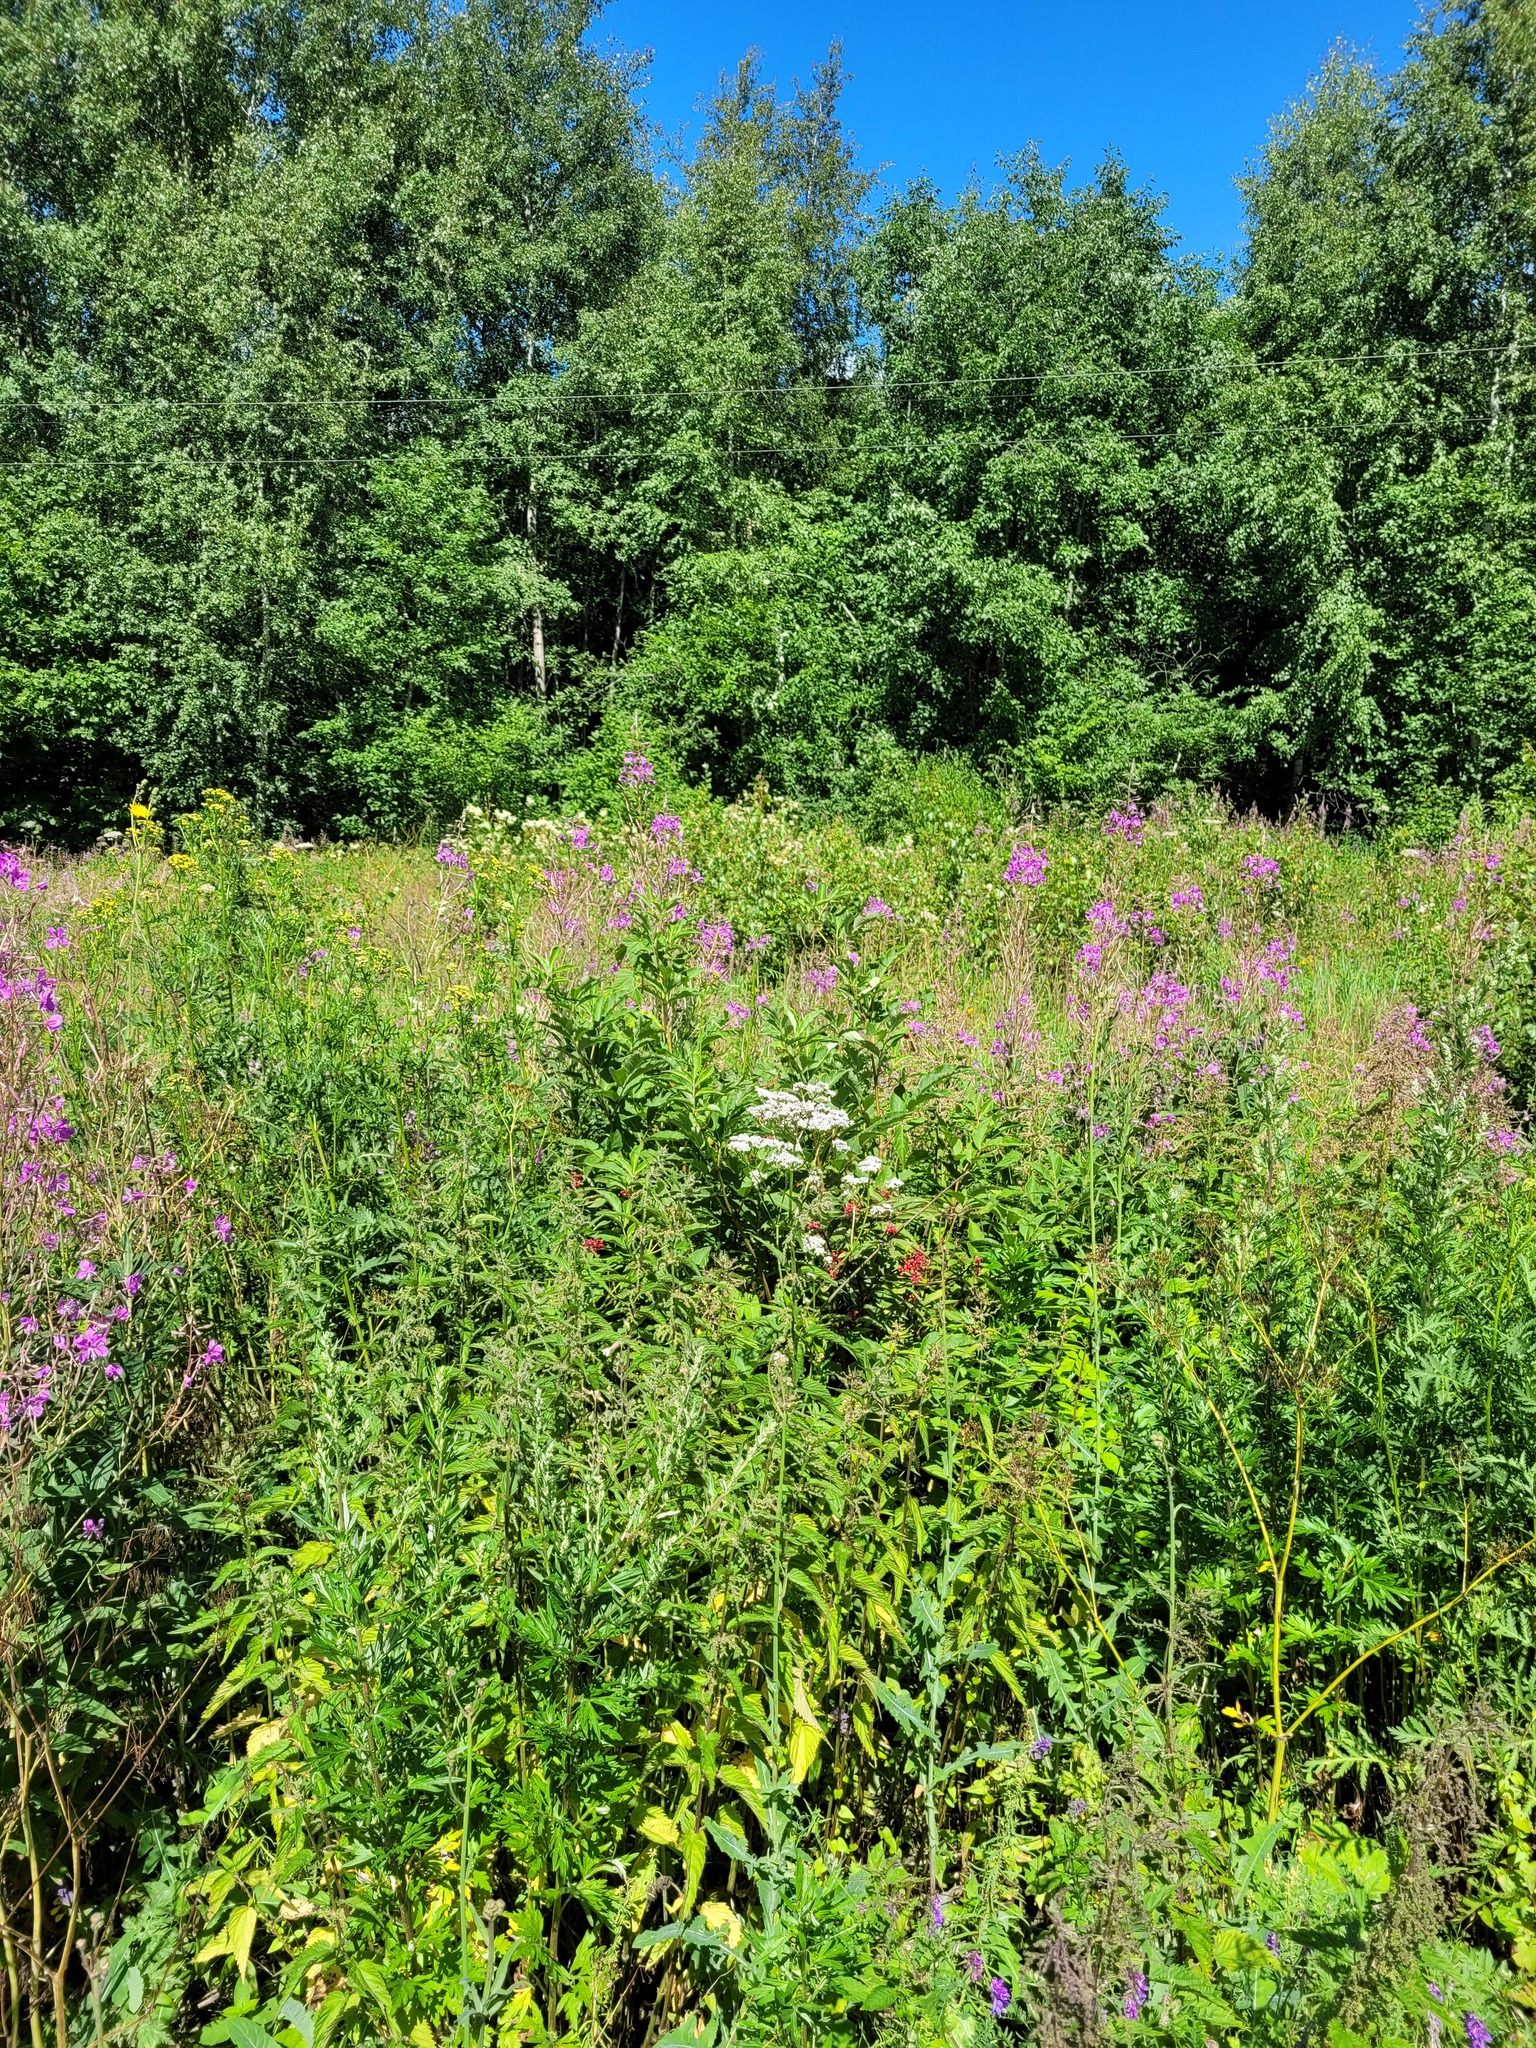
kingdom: Plantae
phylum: Tracheophyta
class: Magnoliopsida
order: Myrtales
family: Onagraceae
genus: Chamaenerion
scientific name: Chamaenerion angustifolium
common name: Fireweed
